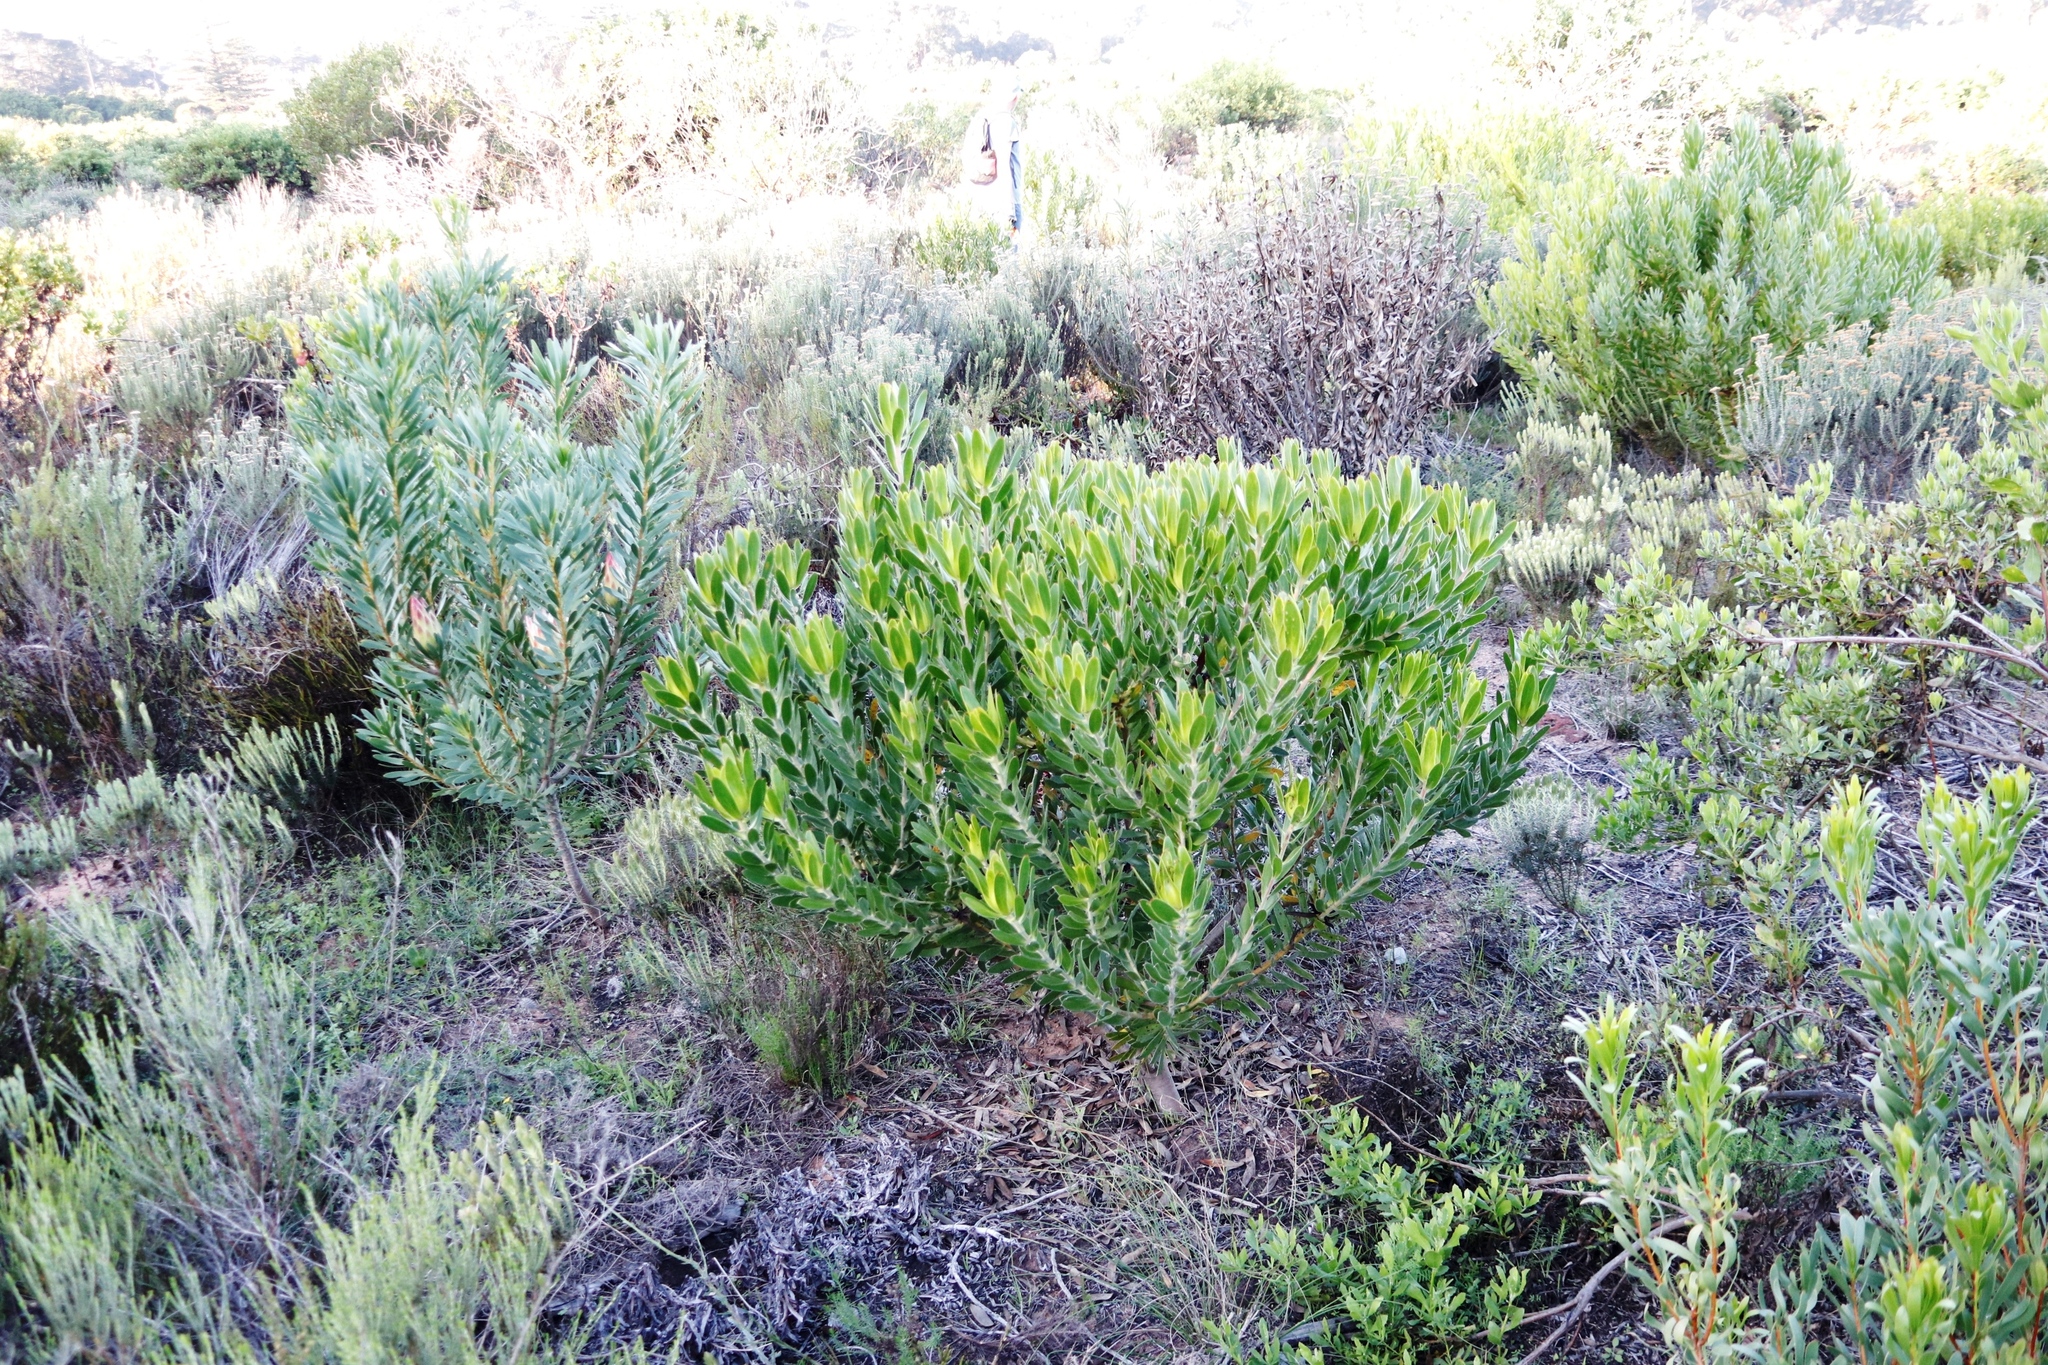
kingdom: Plantae
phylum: Tracheophyta
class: Magnoliopsida
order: Proteales
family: Proteaceae
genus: Leucadendron
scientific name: Leucadendron laureolum
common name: Golden sunshinebush
